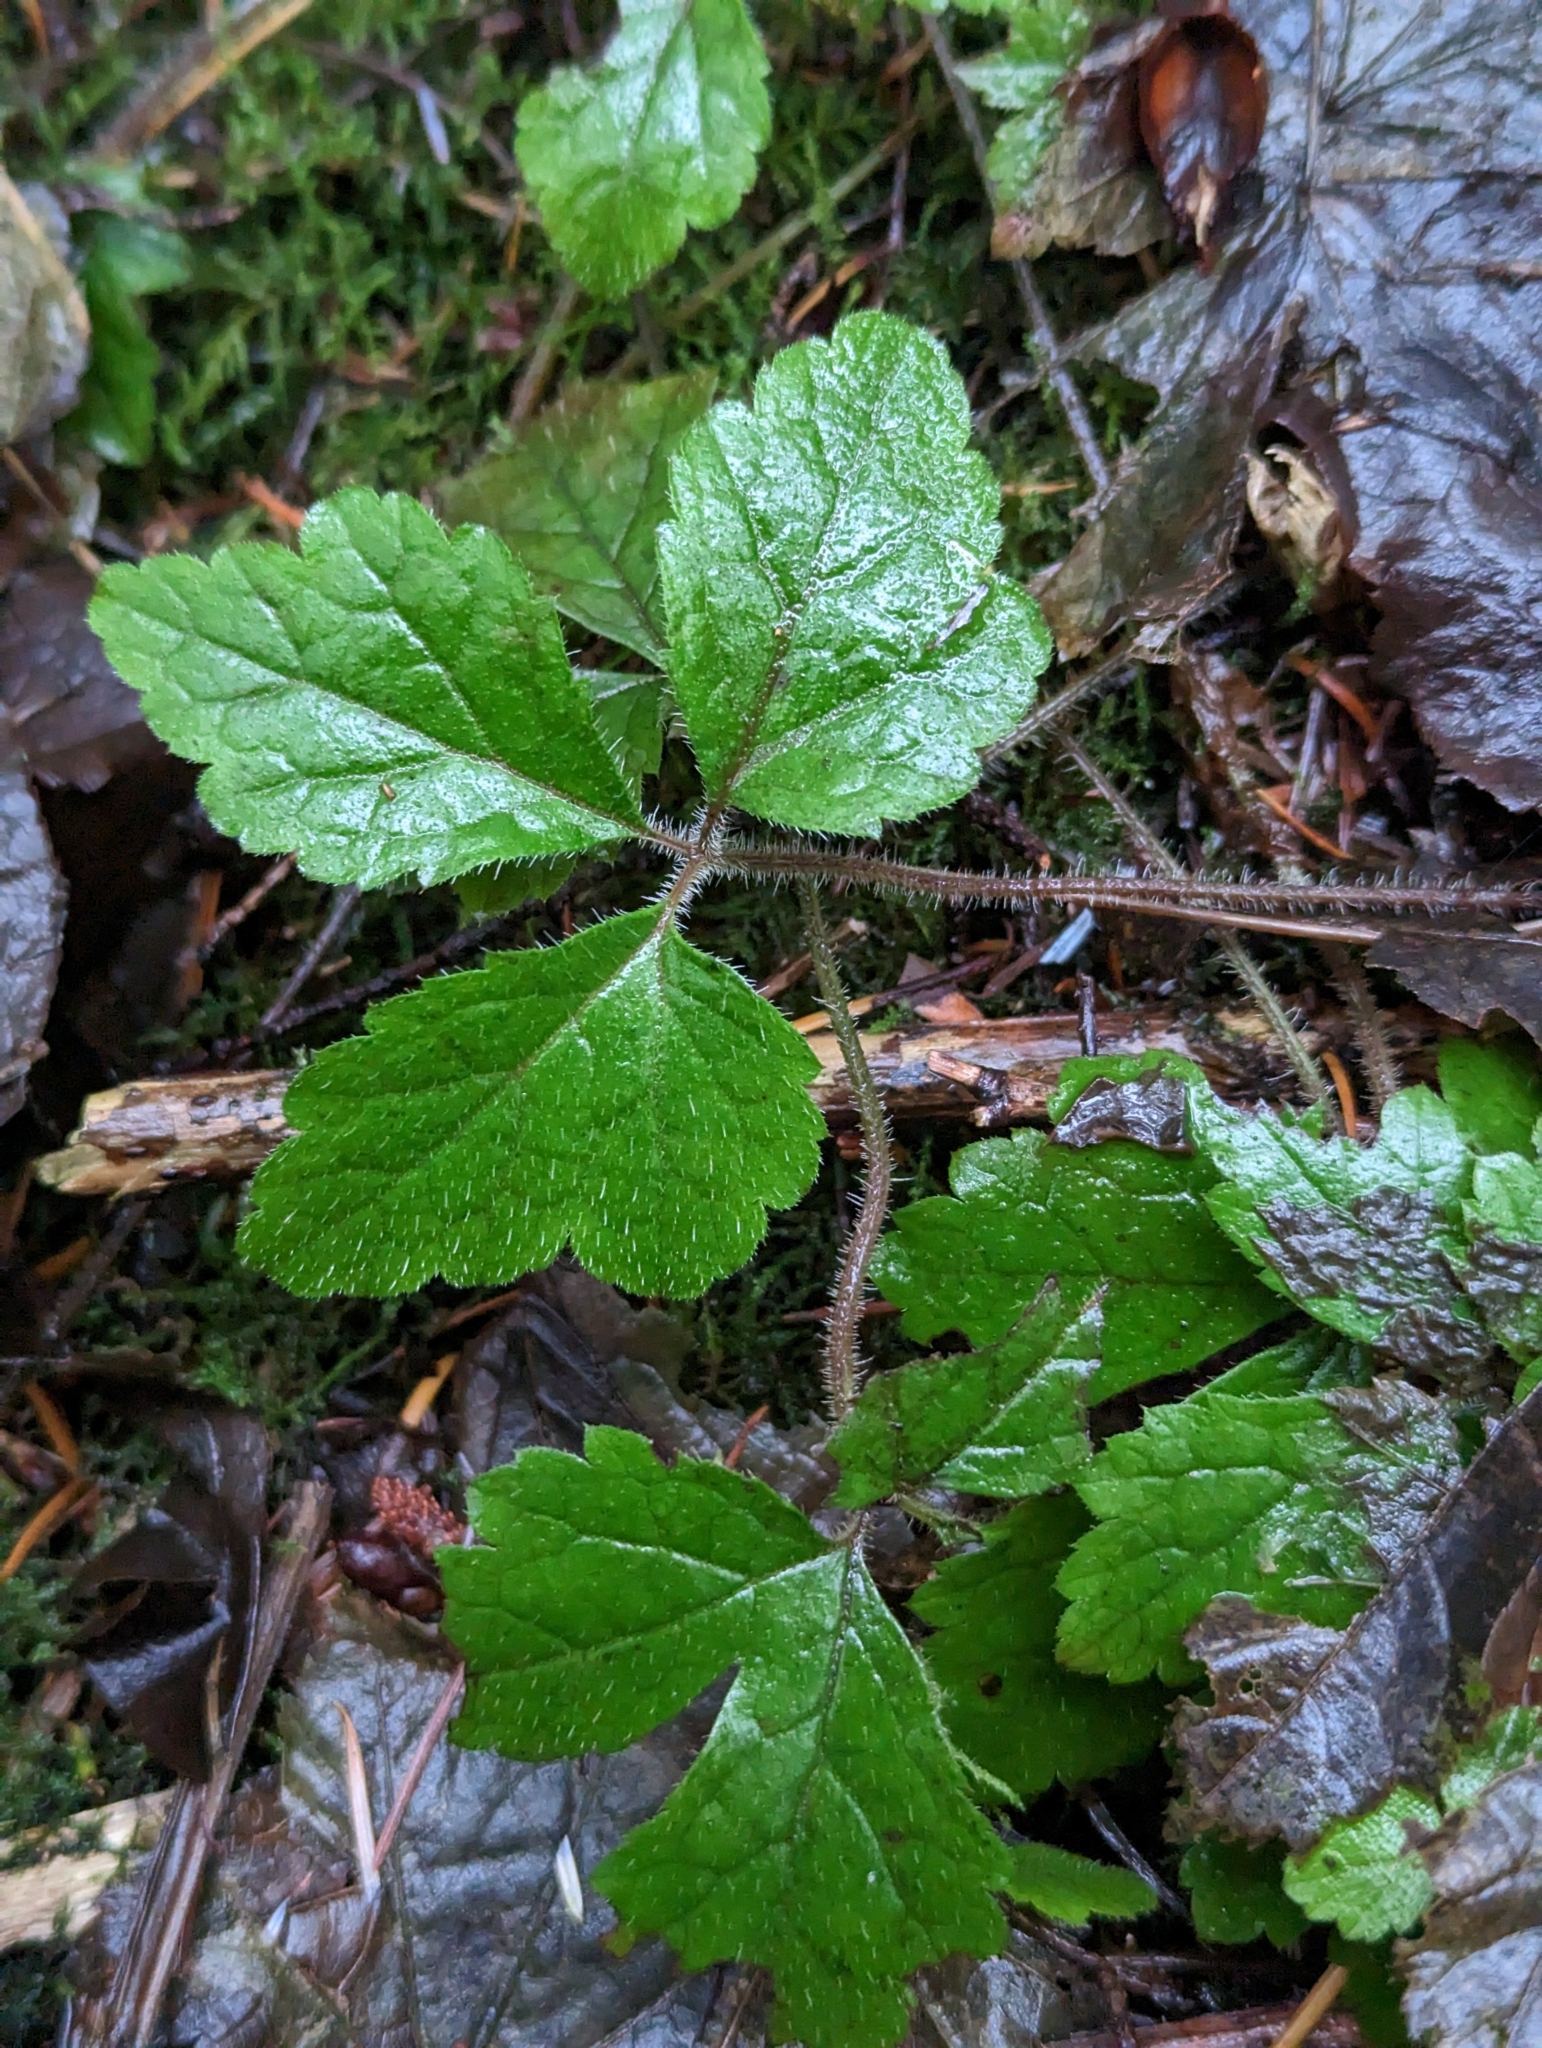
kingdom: Plantae
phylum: Tracheophyta
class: Magnoliopsida
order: Saxifragales
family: Saxifragaceae
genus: Tiarella
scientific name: Tiarella trifoliata
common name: Sugar-scoop
